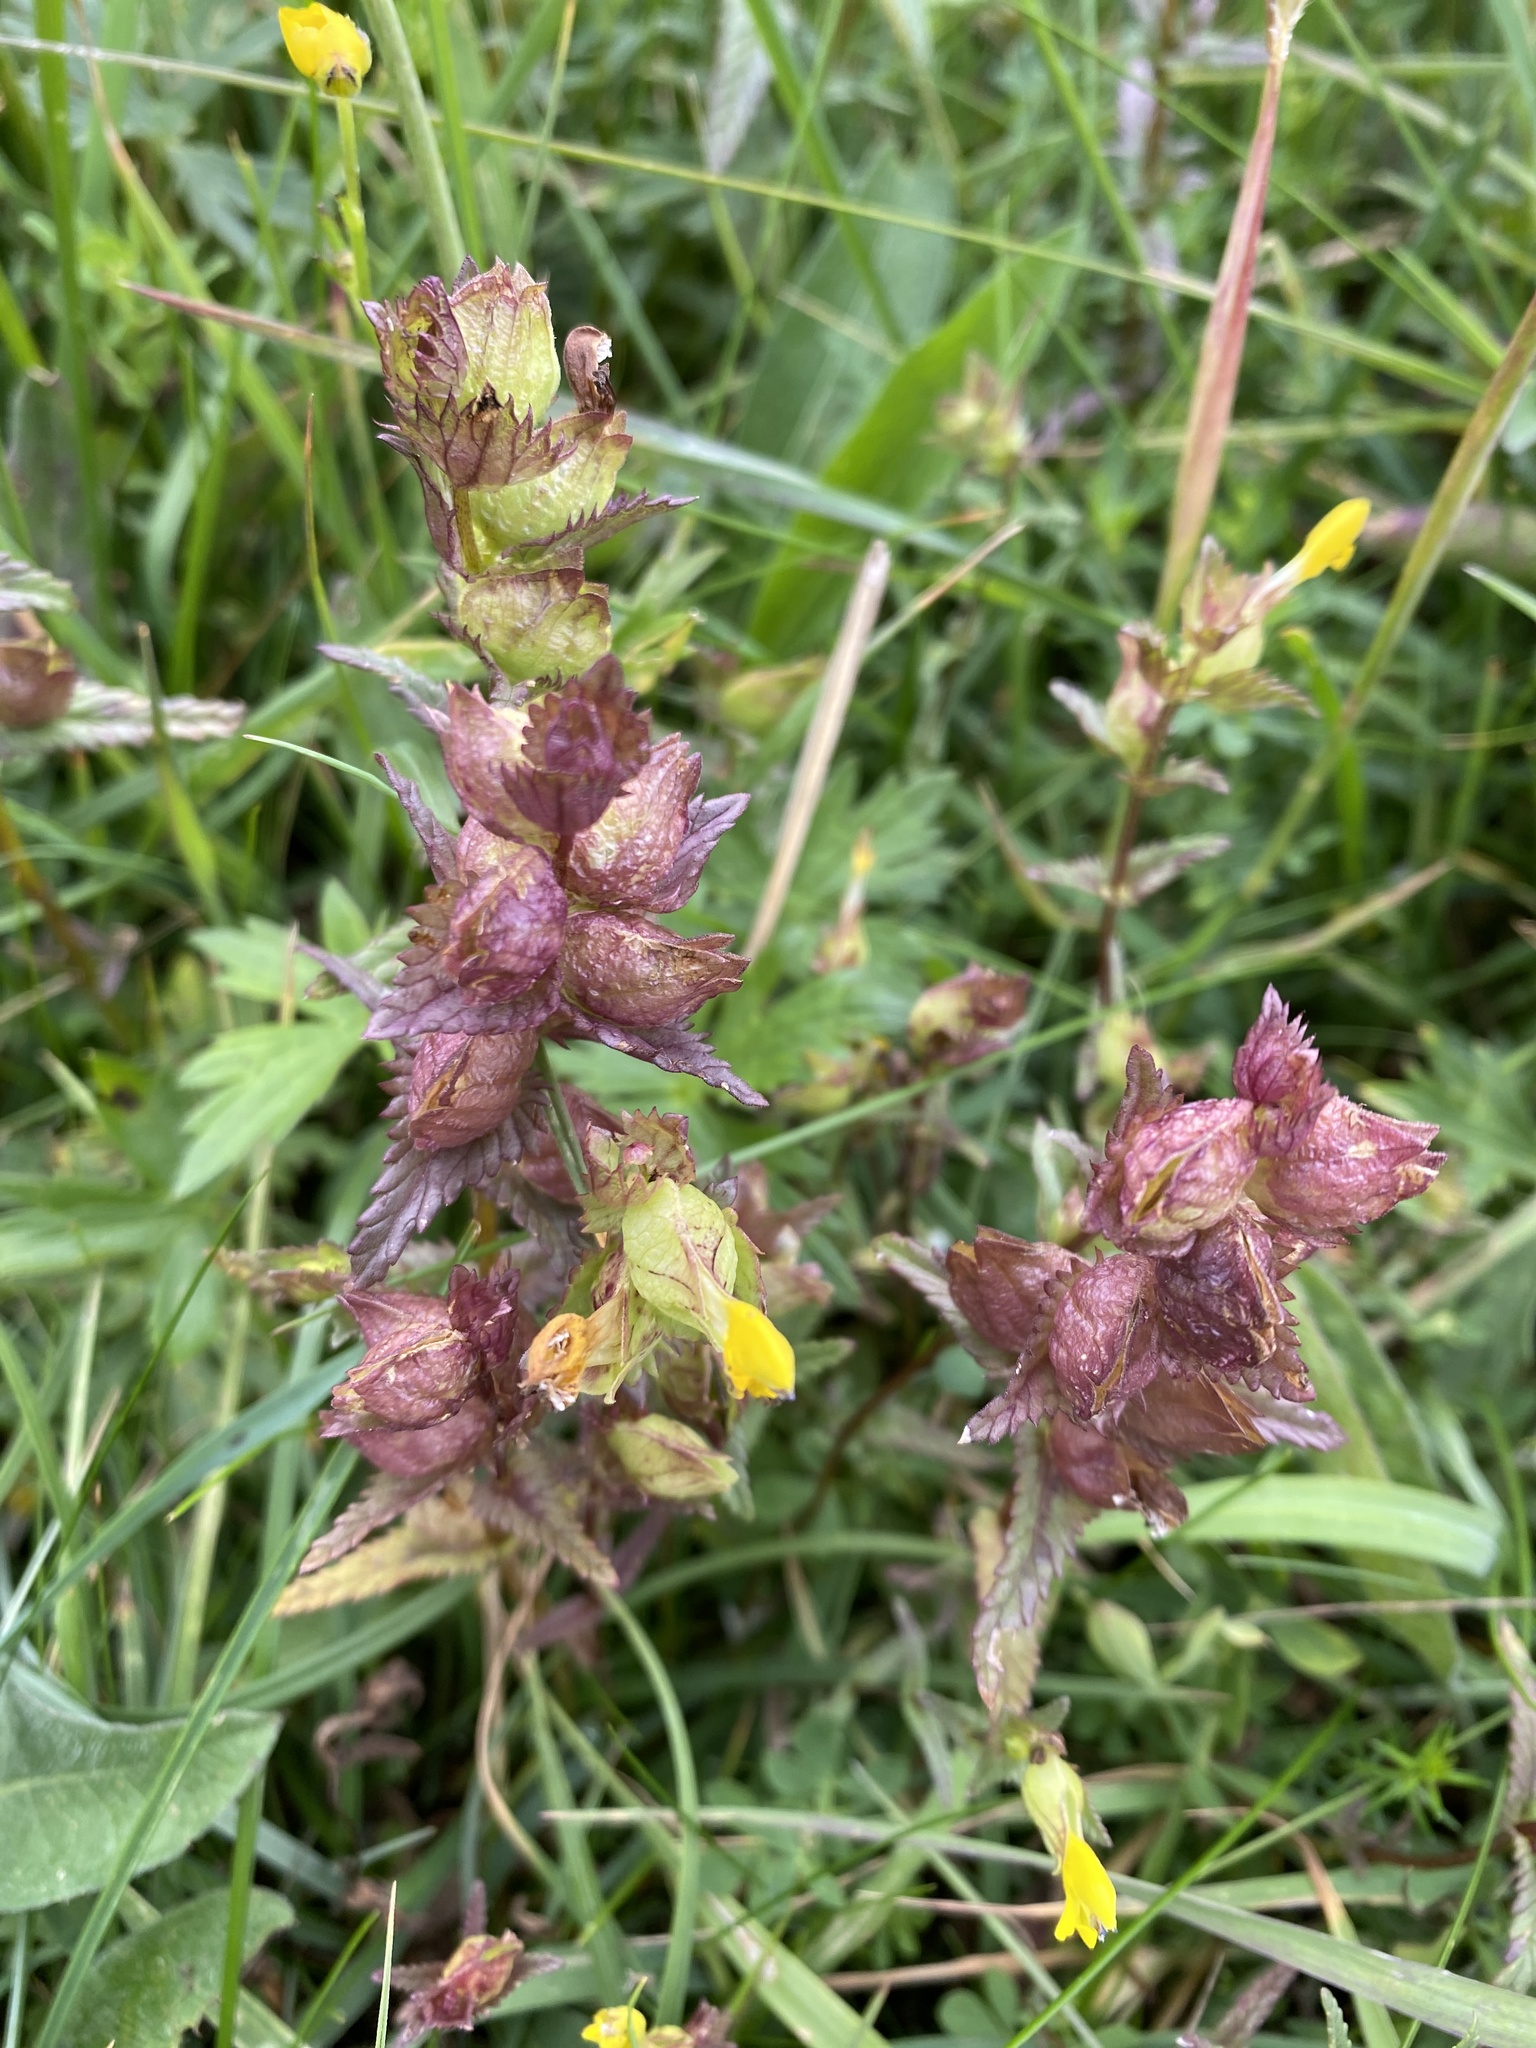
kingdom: Plantae
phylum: Tracheophyta
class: Magnoliopsida
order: Lamiales
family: Orobanchaceae
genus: Rhinanthus
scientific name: Rhinanthus minor
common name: Yellow-rattle
